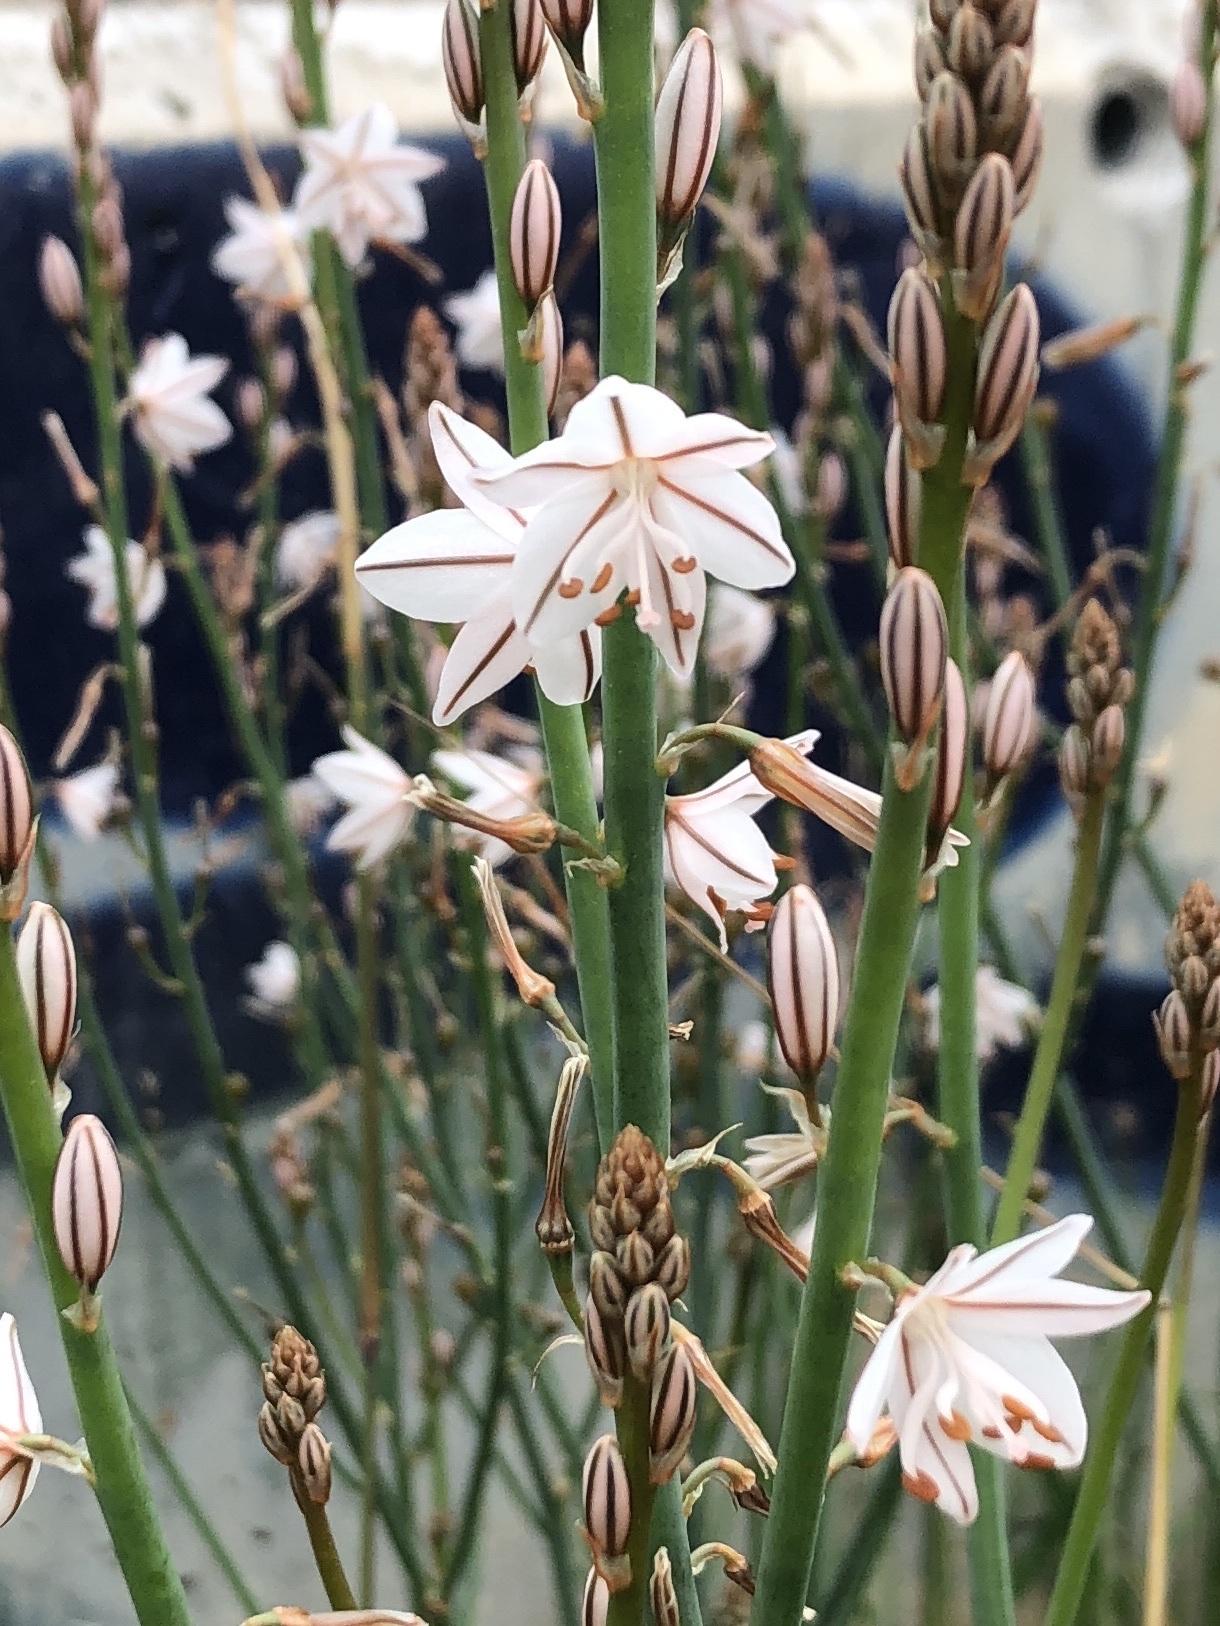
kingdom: Plantae
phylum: Tracheophyta
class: Liliopsida
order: Asparagales
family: Asphodelaceae
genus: Asphodelus
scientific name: Asphodelus fistulosus
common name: Onionweed
